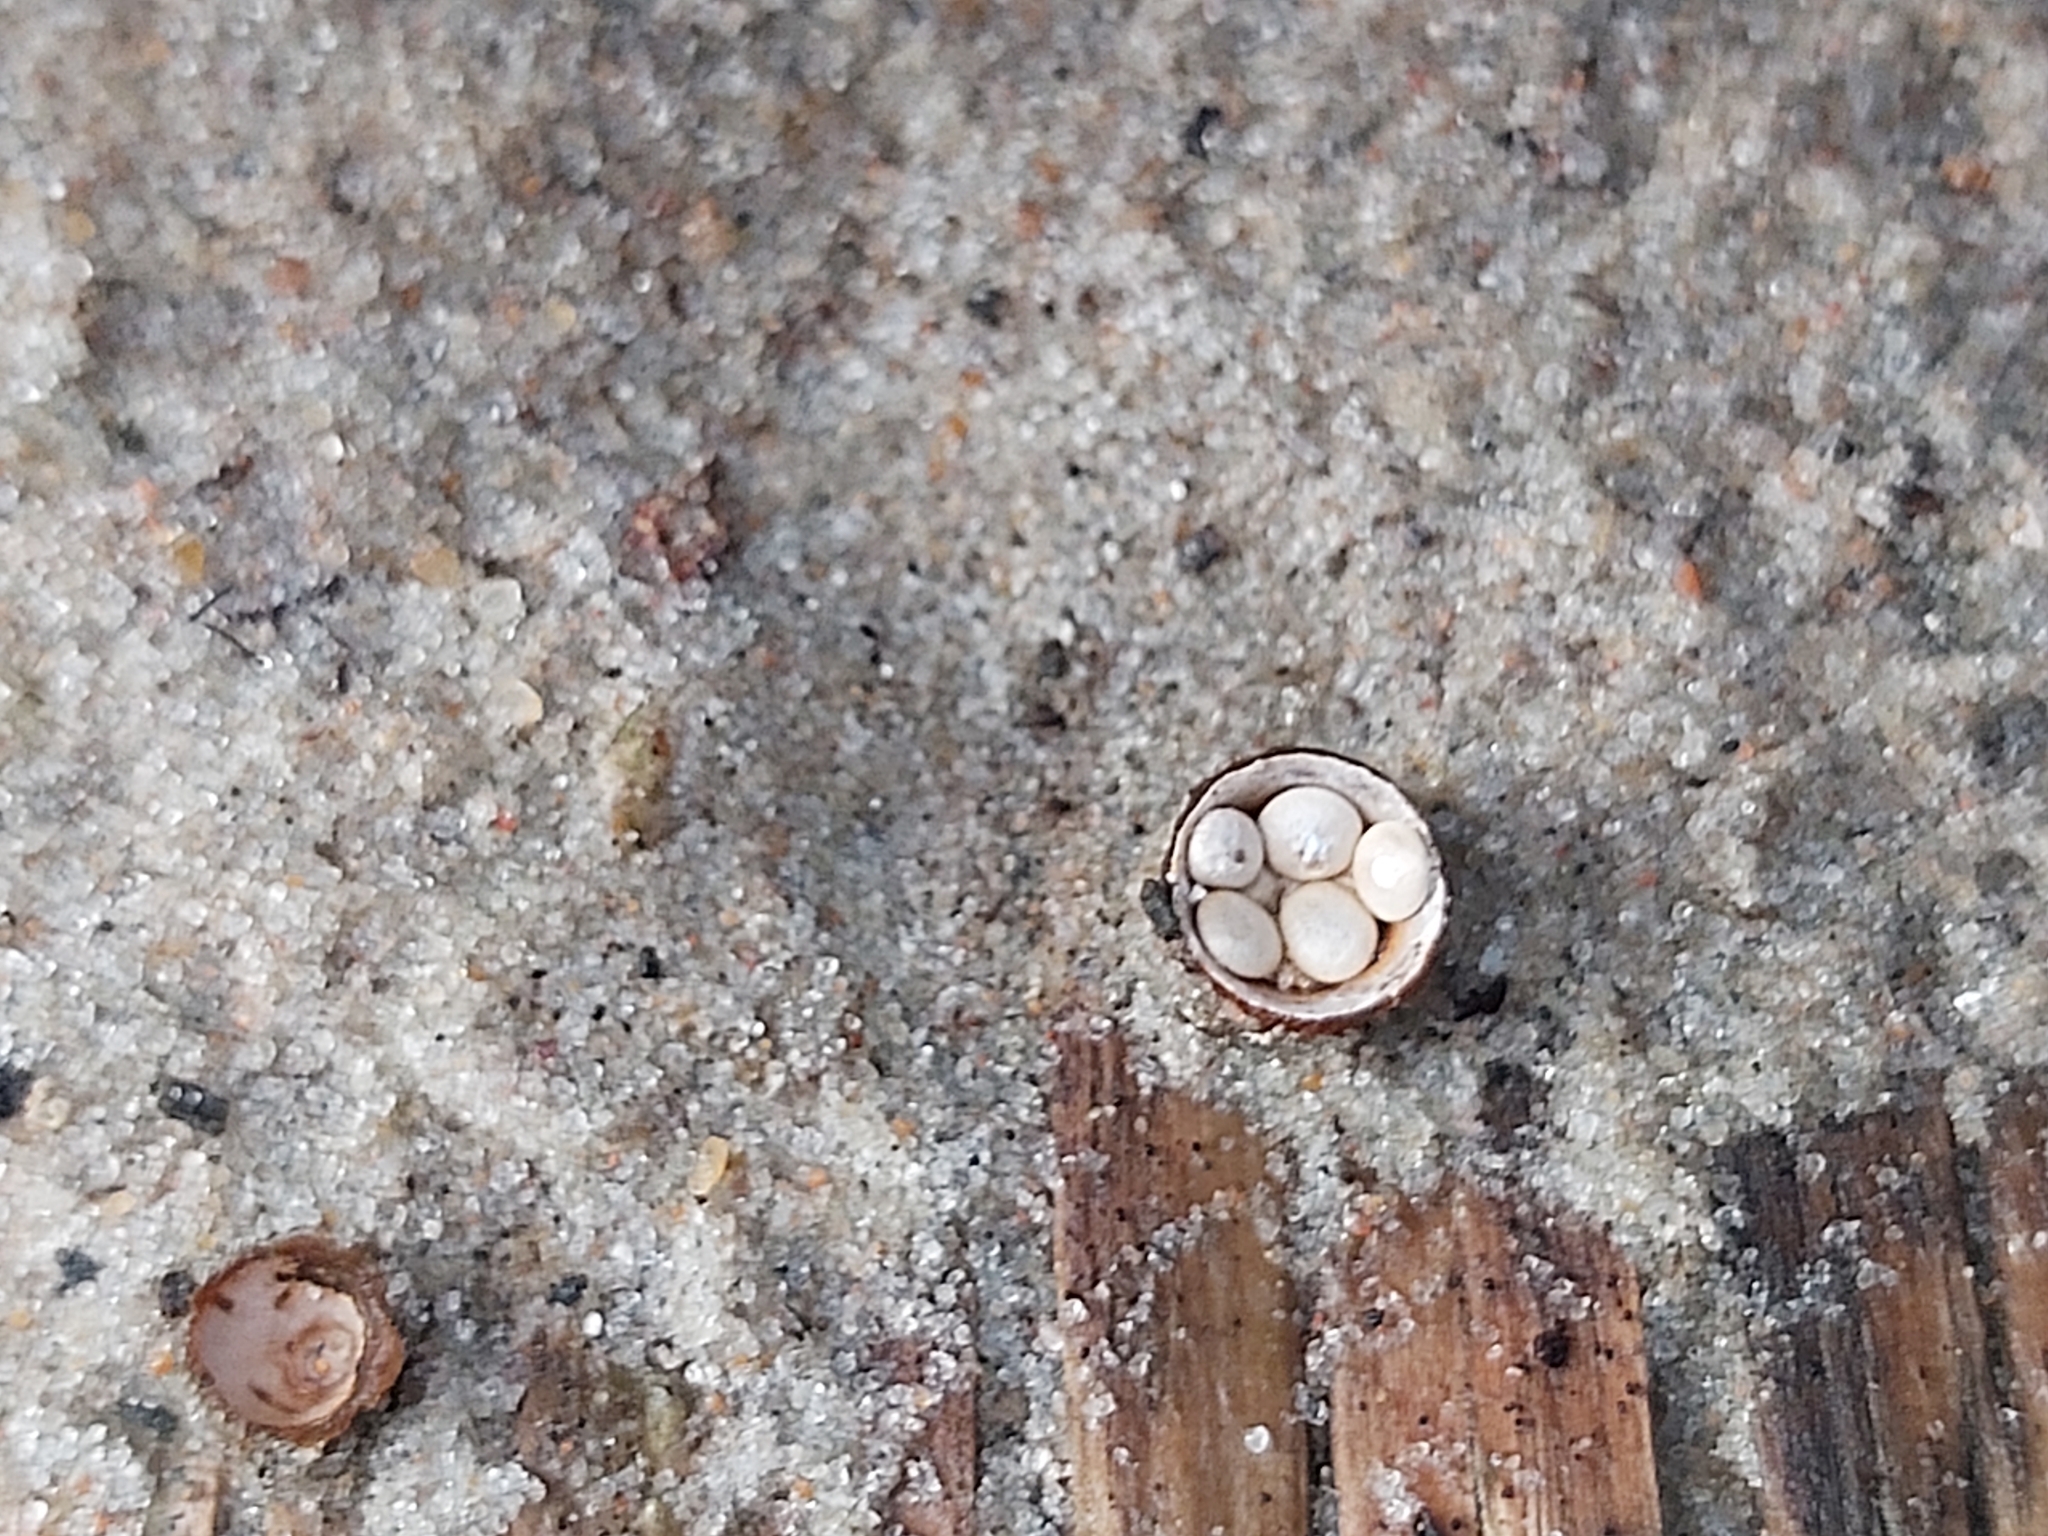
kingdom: Fungi
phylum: Basidiomycota
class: Agaricomycetes
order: Agaricales
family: Nidulariaceae
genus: Crucibulum
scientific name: Crucibulum laeve
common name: Common bird's nest
